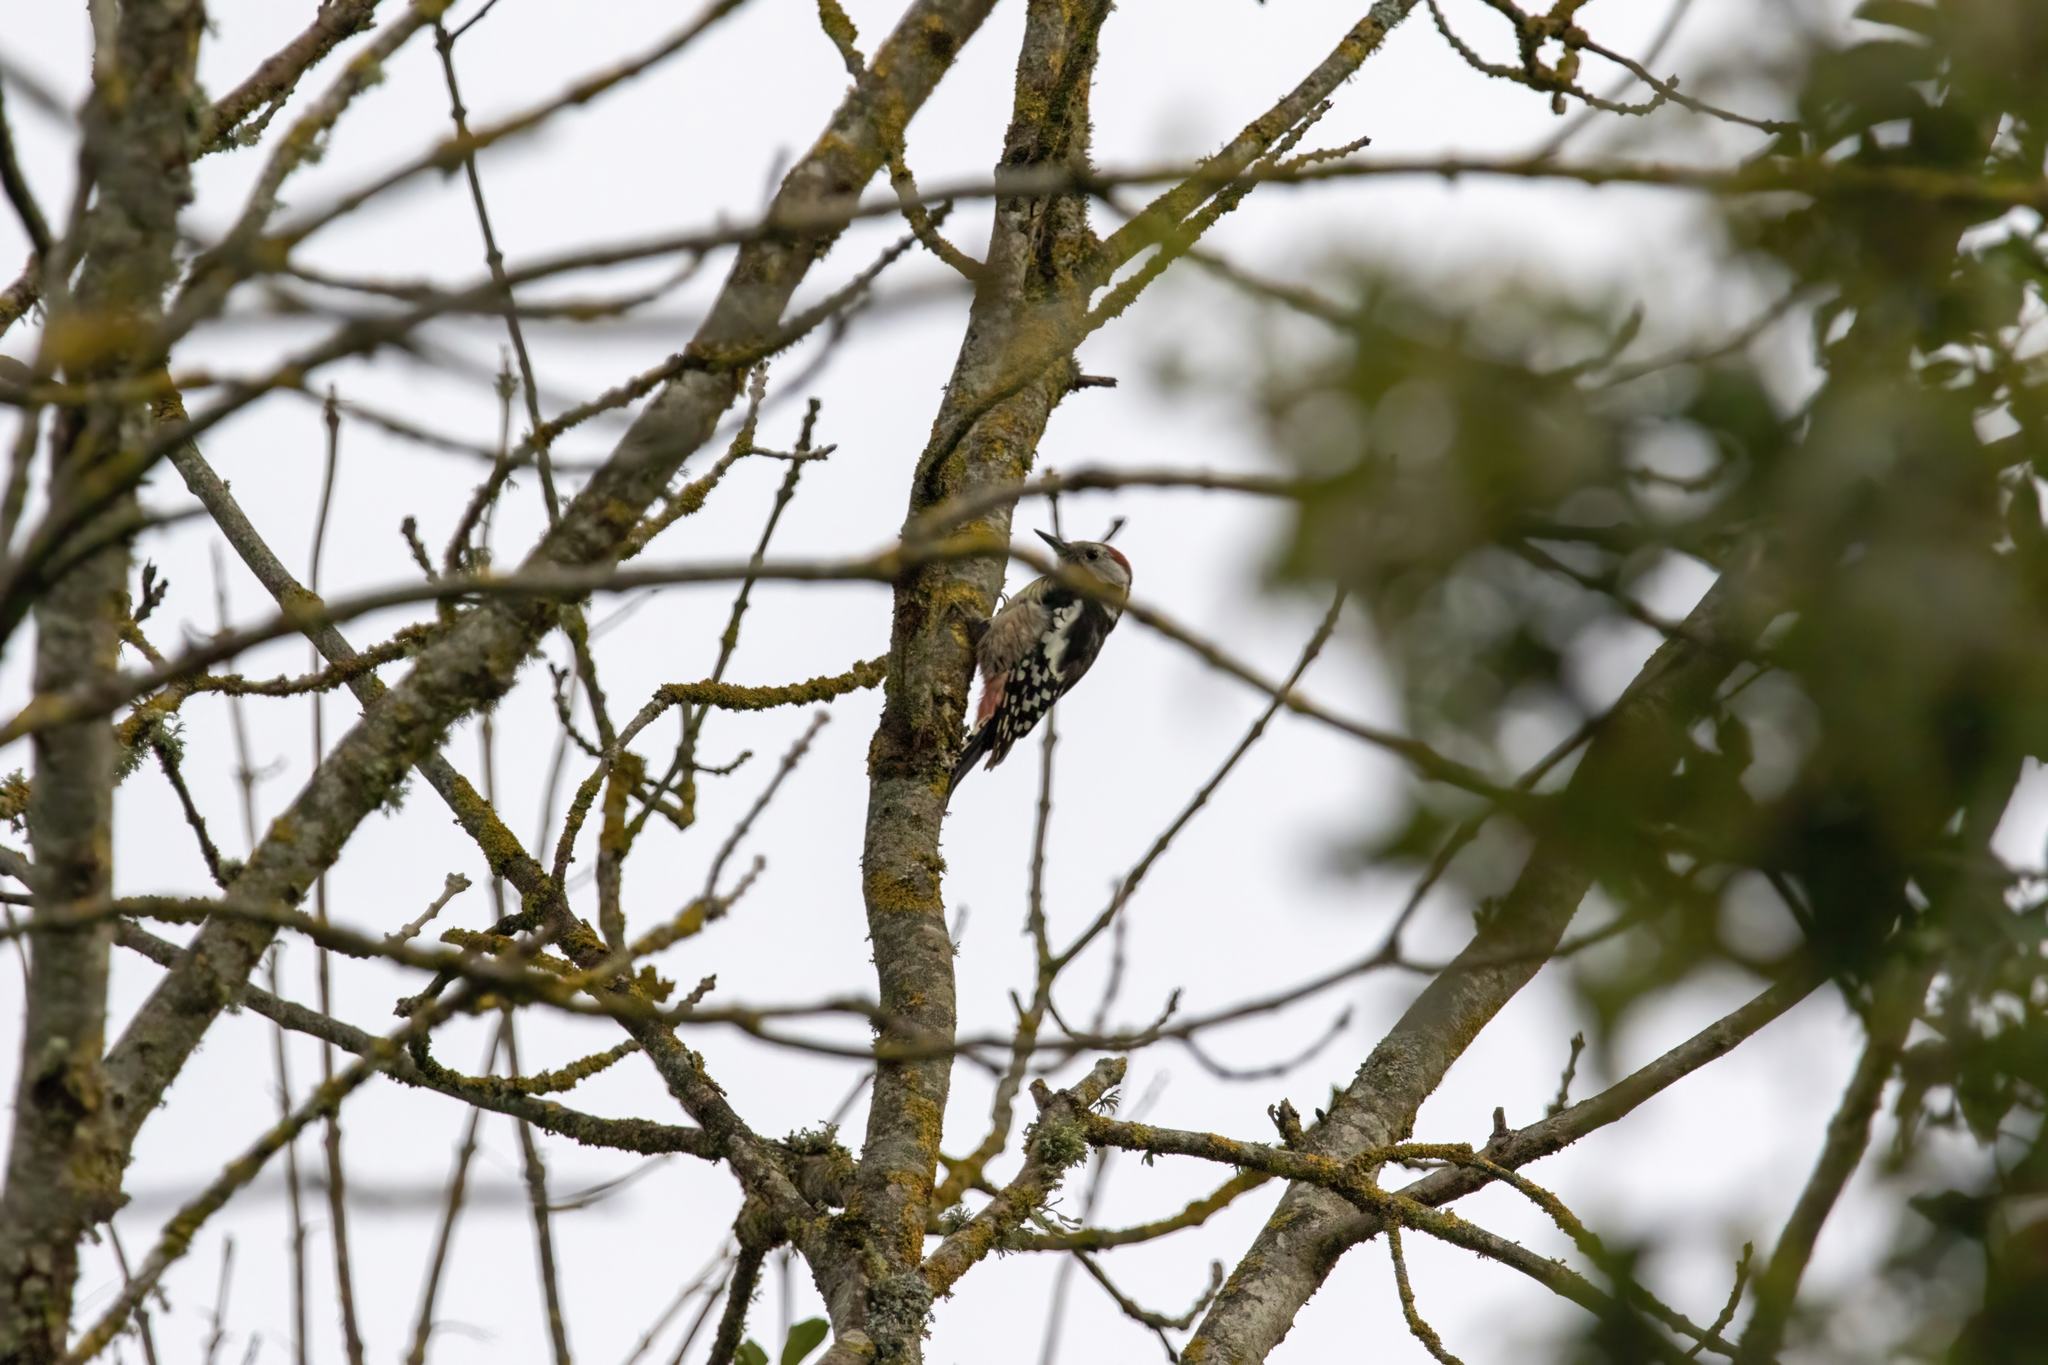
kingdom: Animalia
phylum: Chordata
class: Aves
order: Piciformes
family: Picidae
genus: Dendrocoptes
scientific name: Dendrocoptes medius
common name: Middle spotted woodpecker
